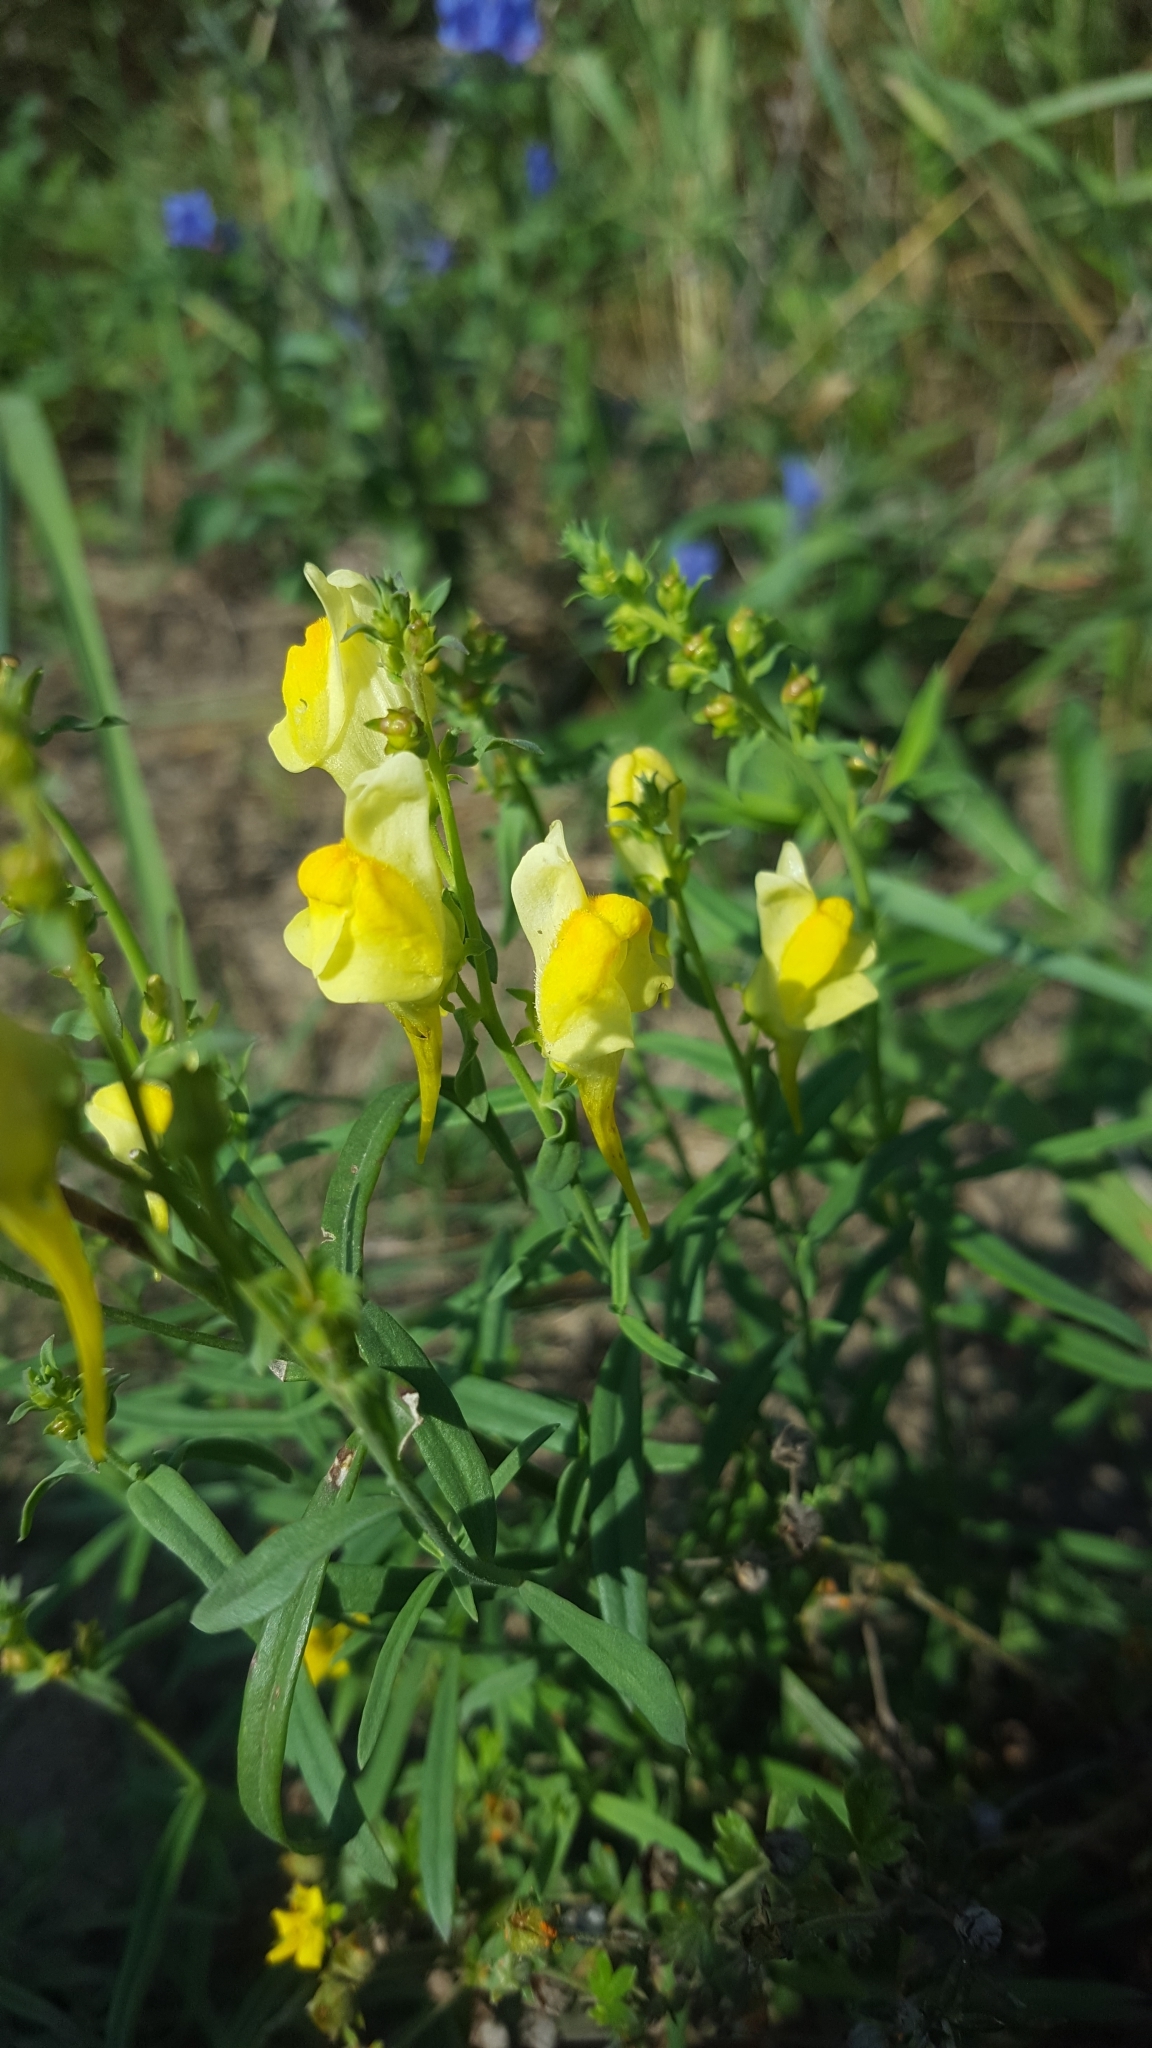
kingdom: Plantae
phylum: Tracheophyta
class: Magnoliopsida
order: Lamiales
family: Plantaginaceae
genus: Linaria
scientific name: Linaria vulgaris
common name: Butter and eggs
